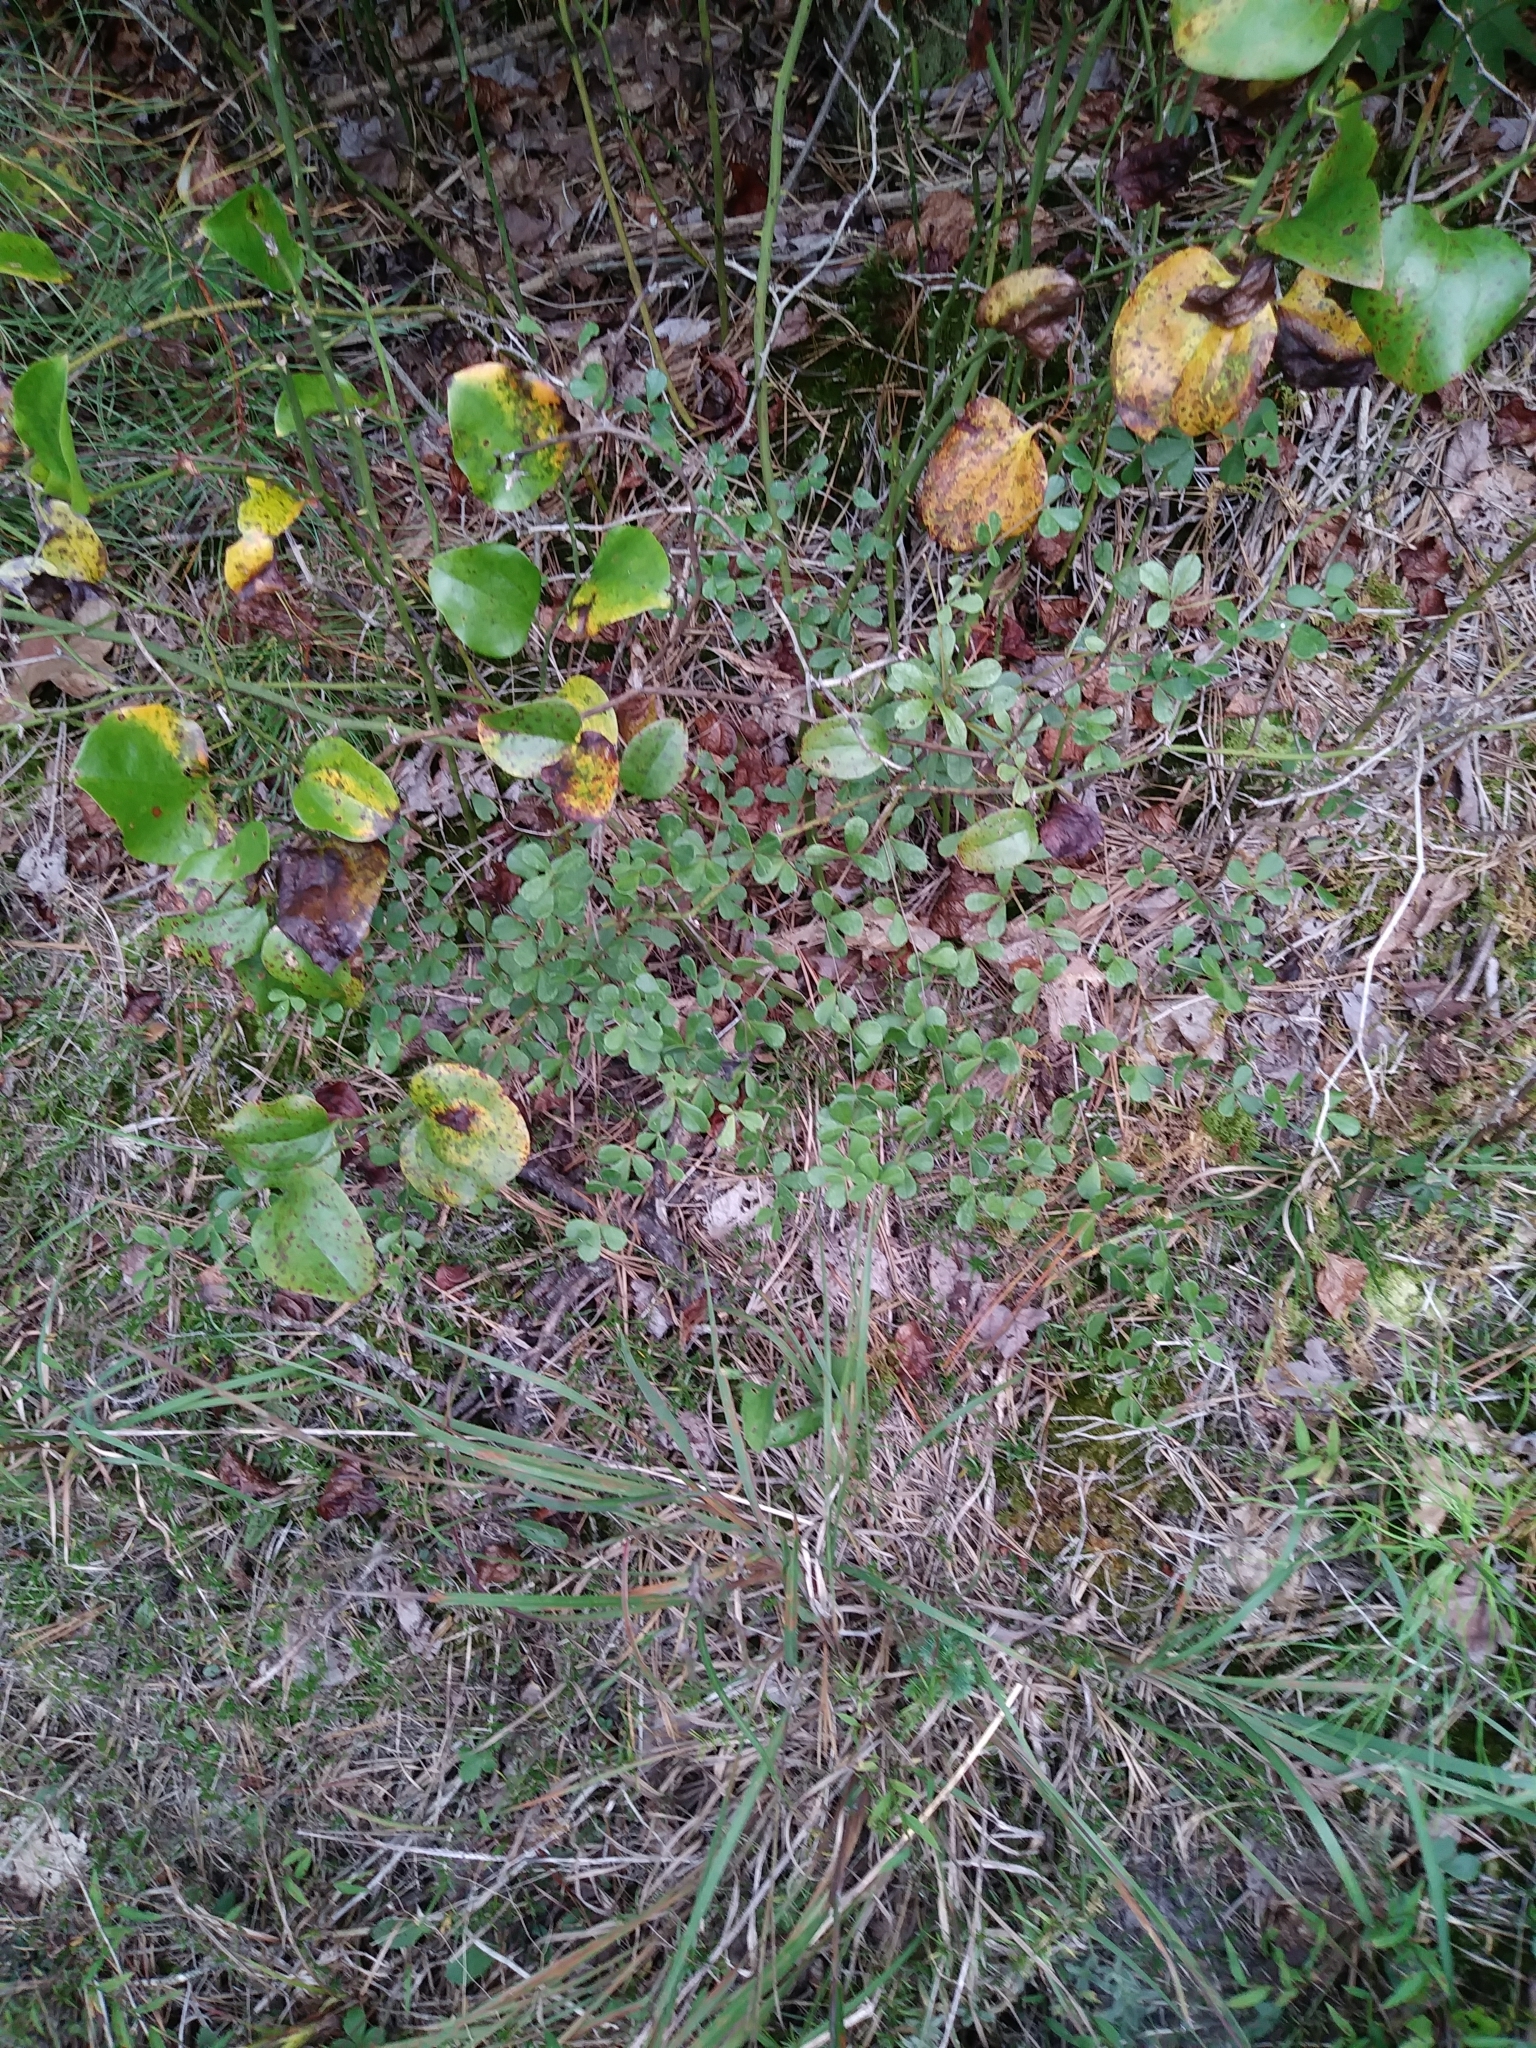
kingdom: Plantae
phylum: Tracheophyta
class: Magnoliopsida
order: Fabales
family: Fabaceae
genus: Baptisia
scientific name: Baptisia tinctoria
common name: Wild indigo
